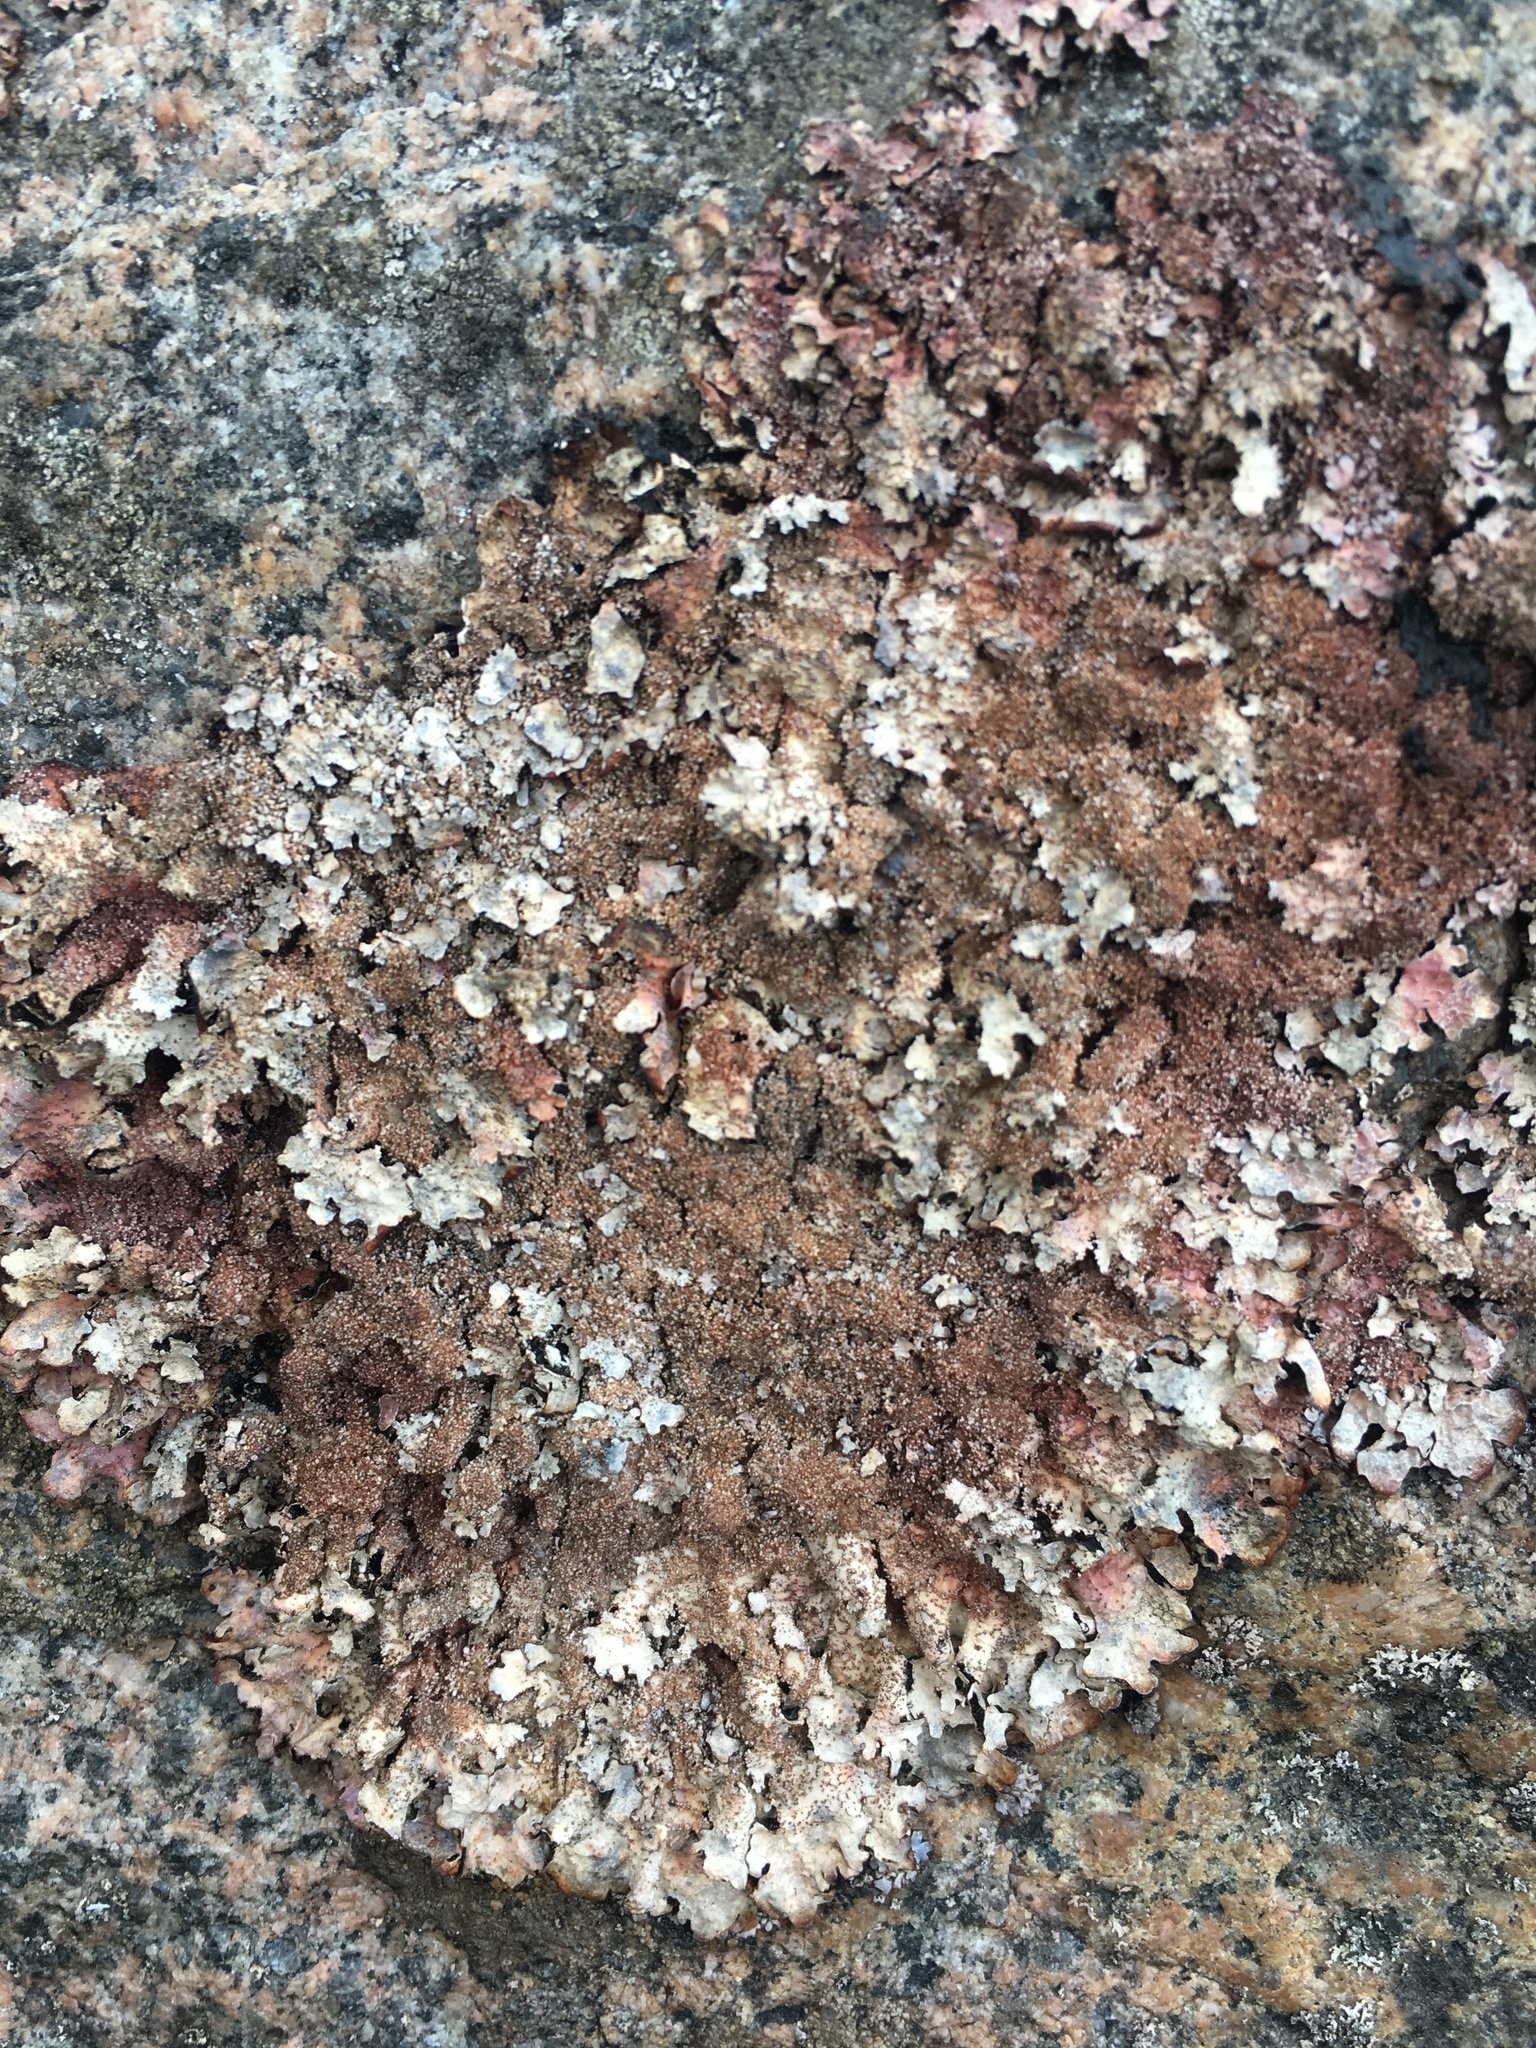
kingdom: Fungi
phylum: Ascomycota
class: Lecanoromycetes
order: Lecanorales
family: Parmeliaceae
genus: Parmelia
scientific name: Parmelia saxatilis
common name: Salted shield lichen
